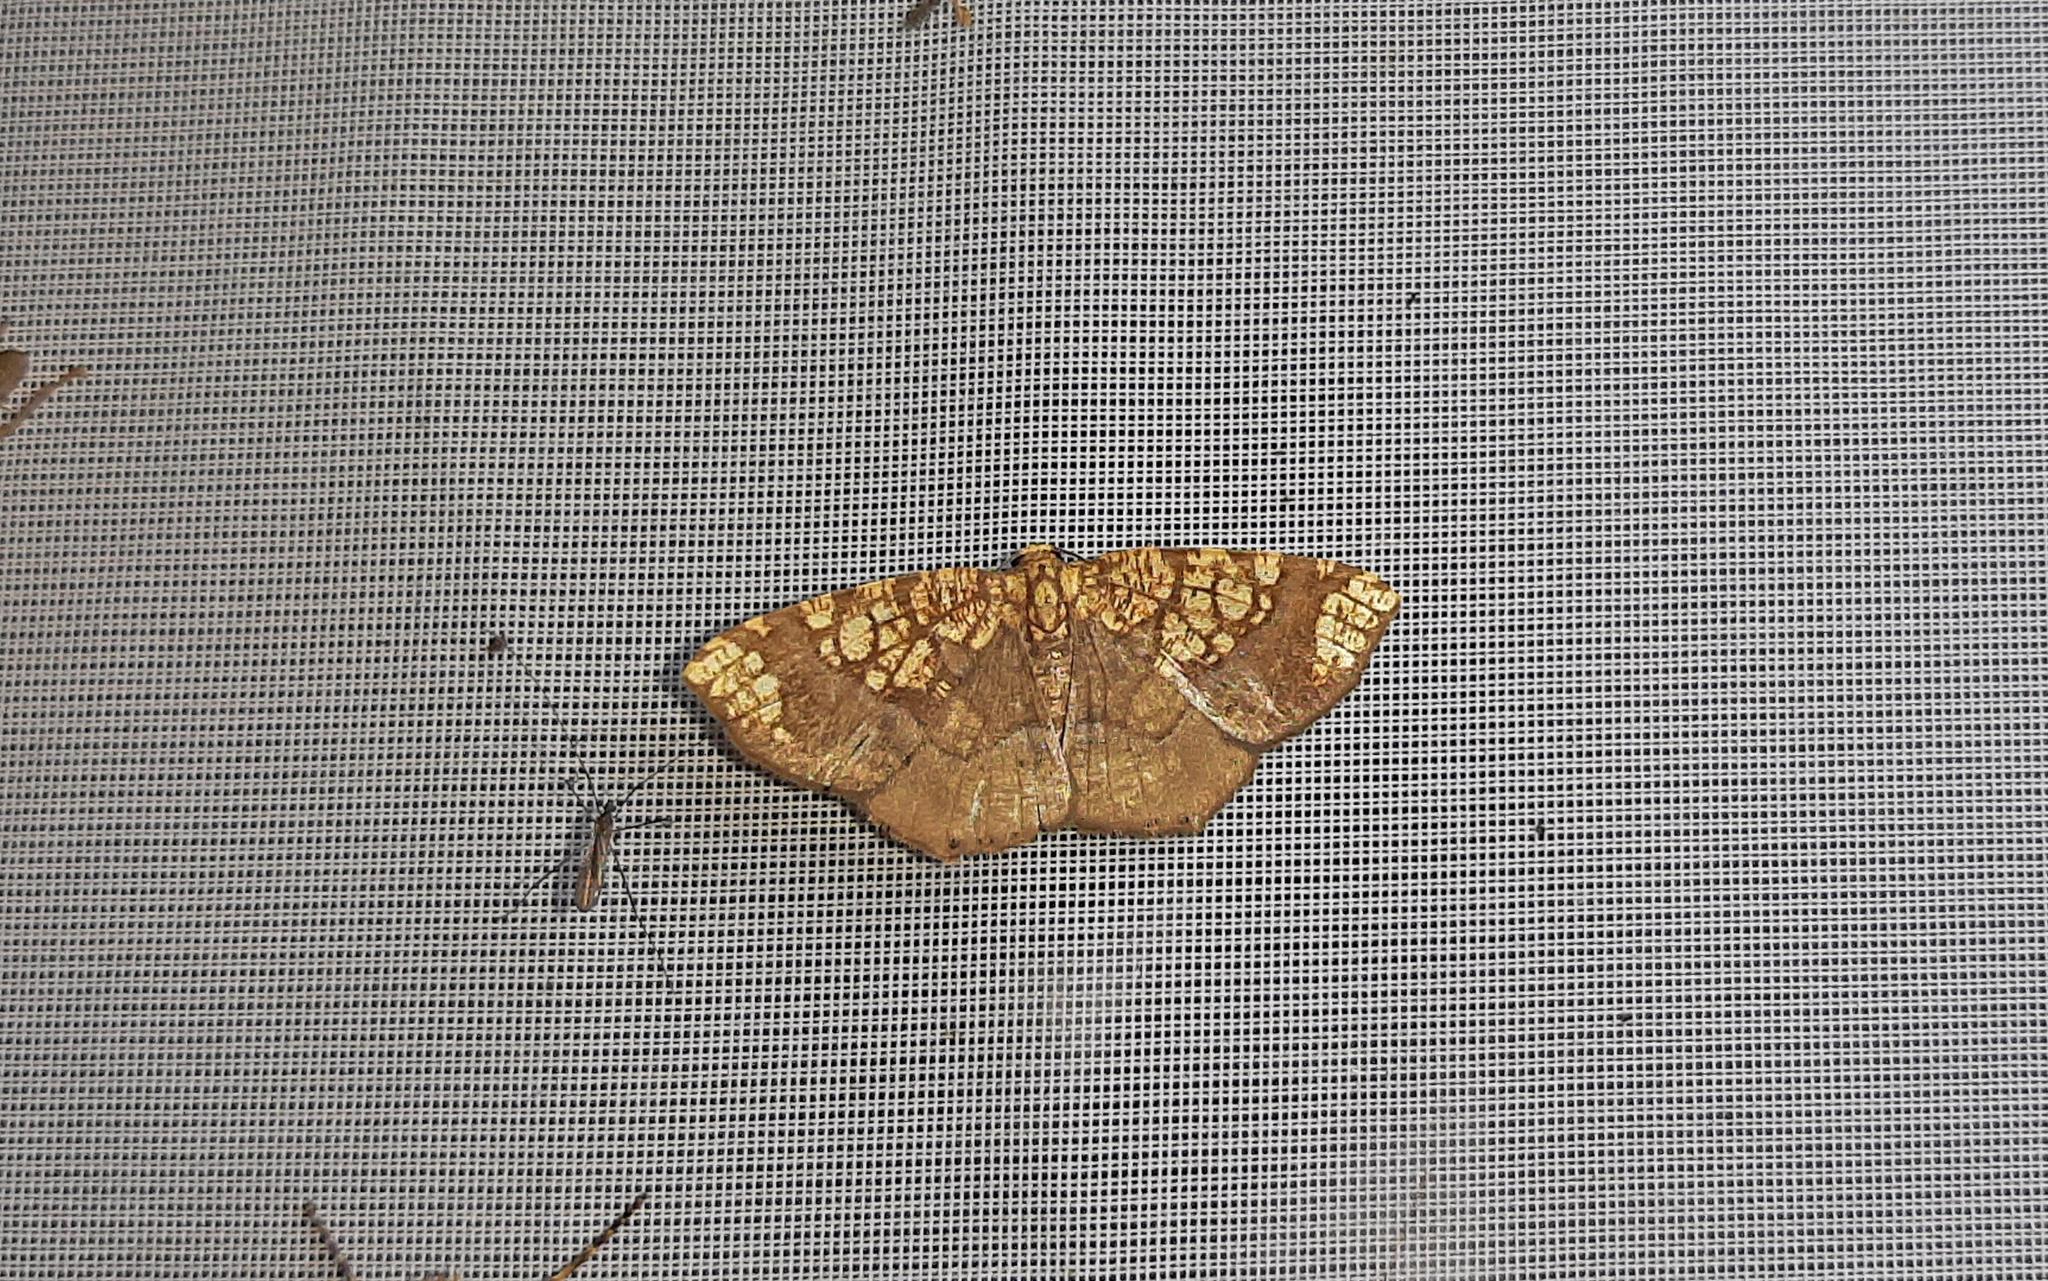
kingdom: Animalia
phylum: Arthropoda
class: Insecta
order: Lepidoptera
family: Geometridae
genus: Nematocampa
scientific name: Nematocampa angulifera
